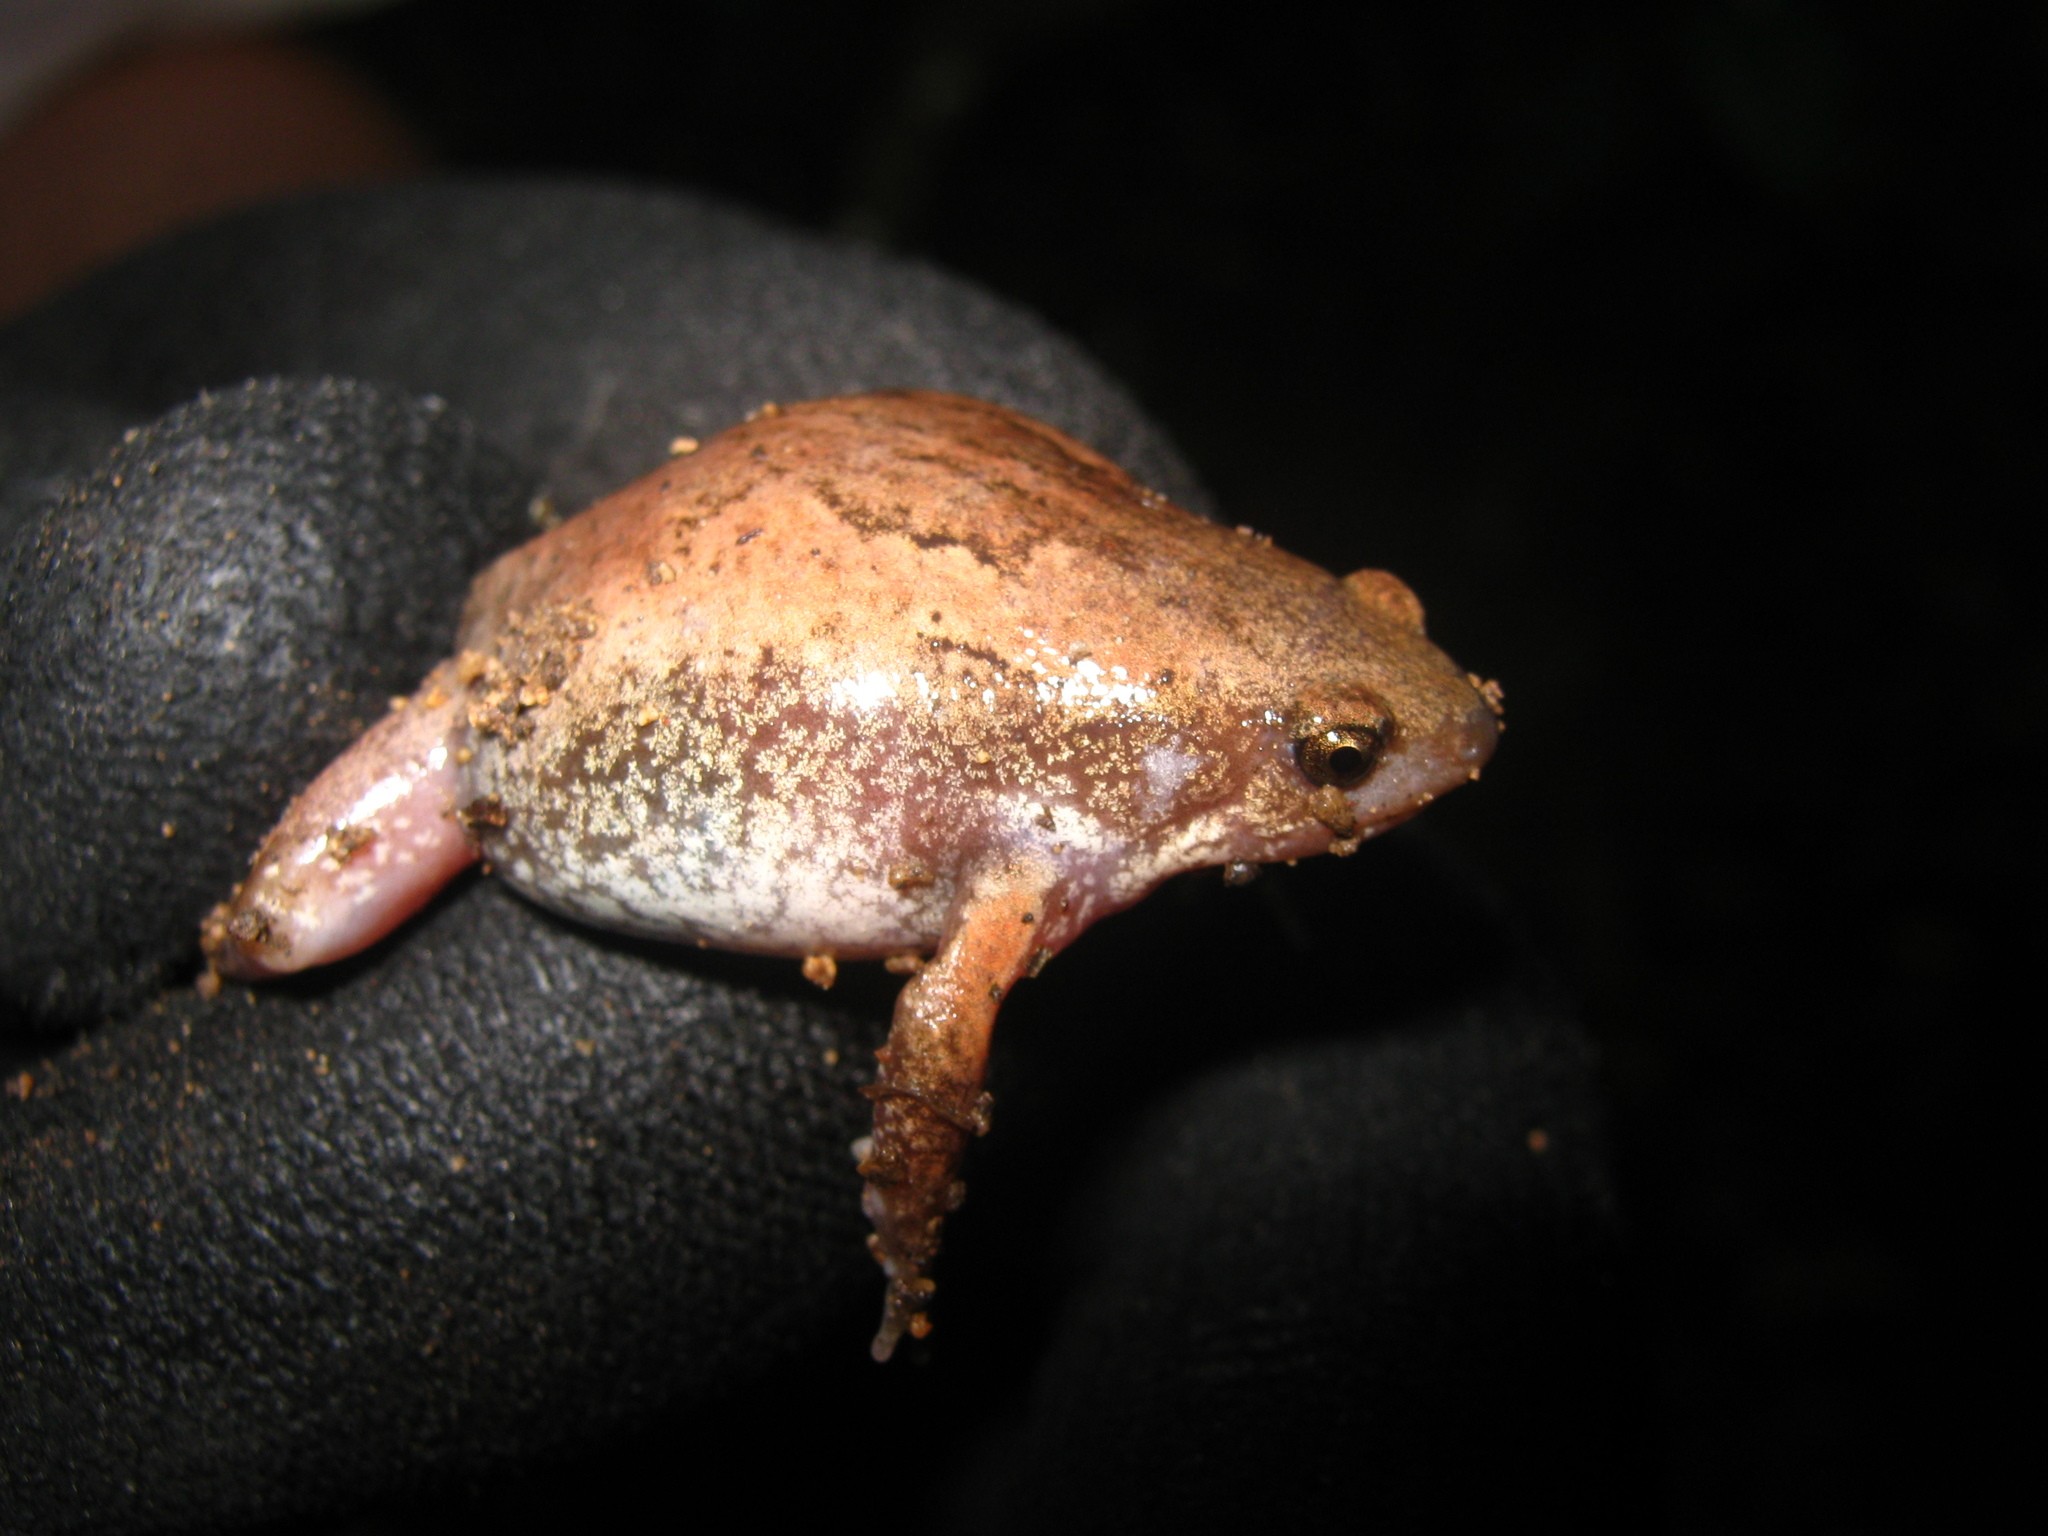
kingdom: Animalia
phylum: Chordata
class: Amphibia
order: Anura
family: Microhylidae
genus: Hypopachus
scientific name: Hypopachus ustus
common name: Two-spade narrowmouth toad
